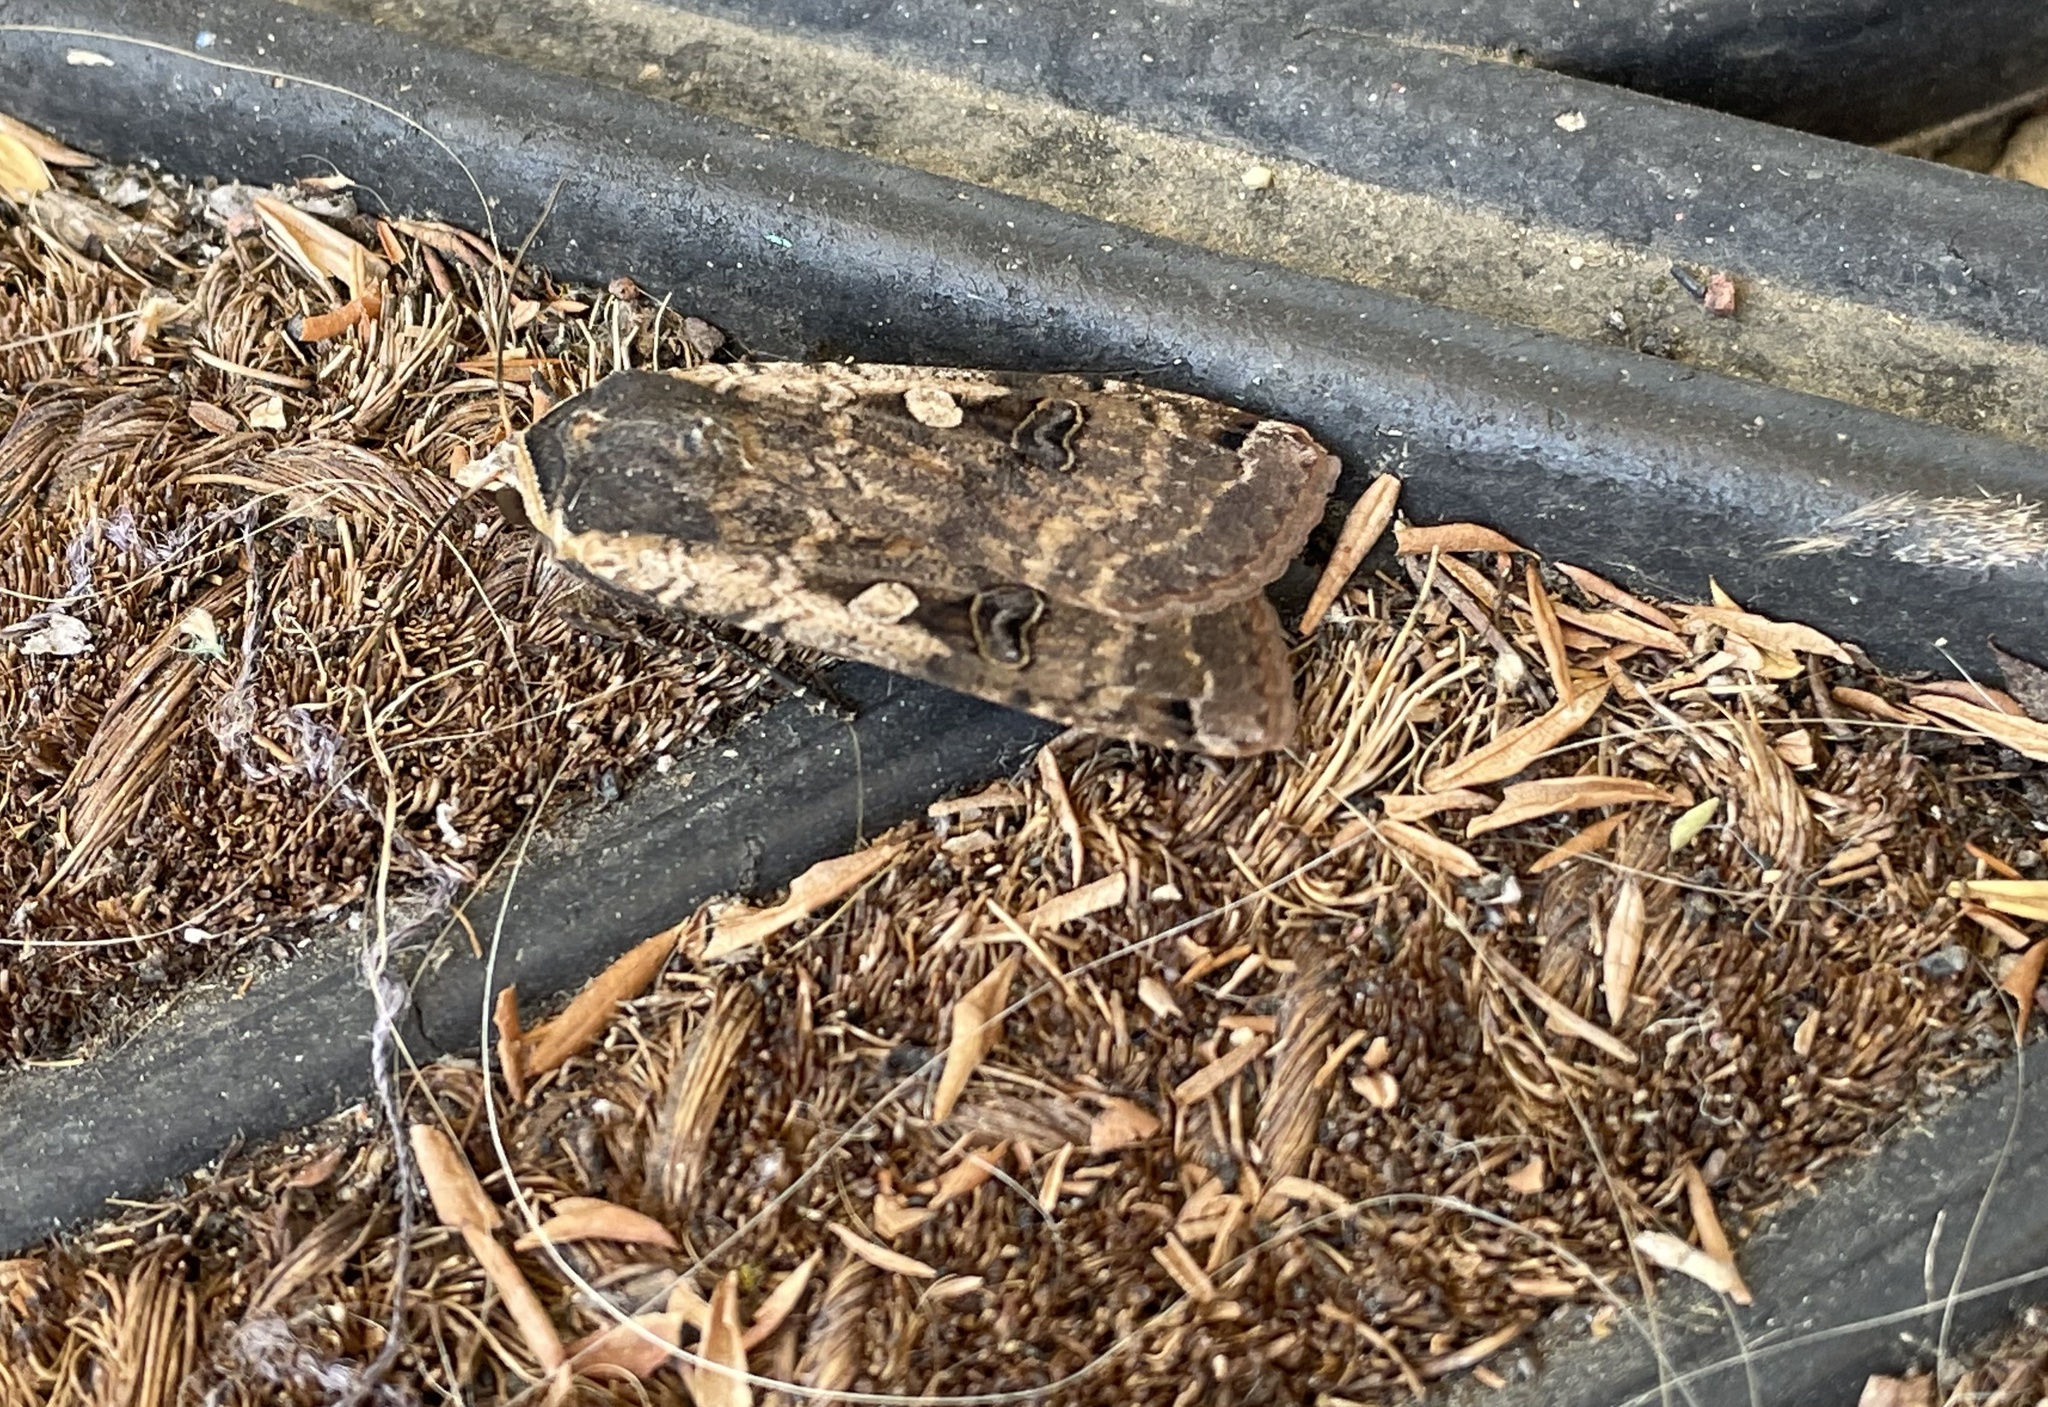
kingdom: Animalia
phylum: Arthropoda
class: Insecta
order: Lepidoptera
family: Noctuidae
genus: Noctua
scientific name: Noctua pronuba
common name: Large yellow underwing
